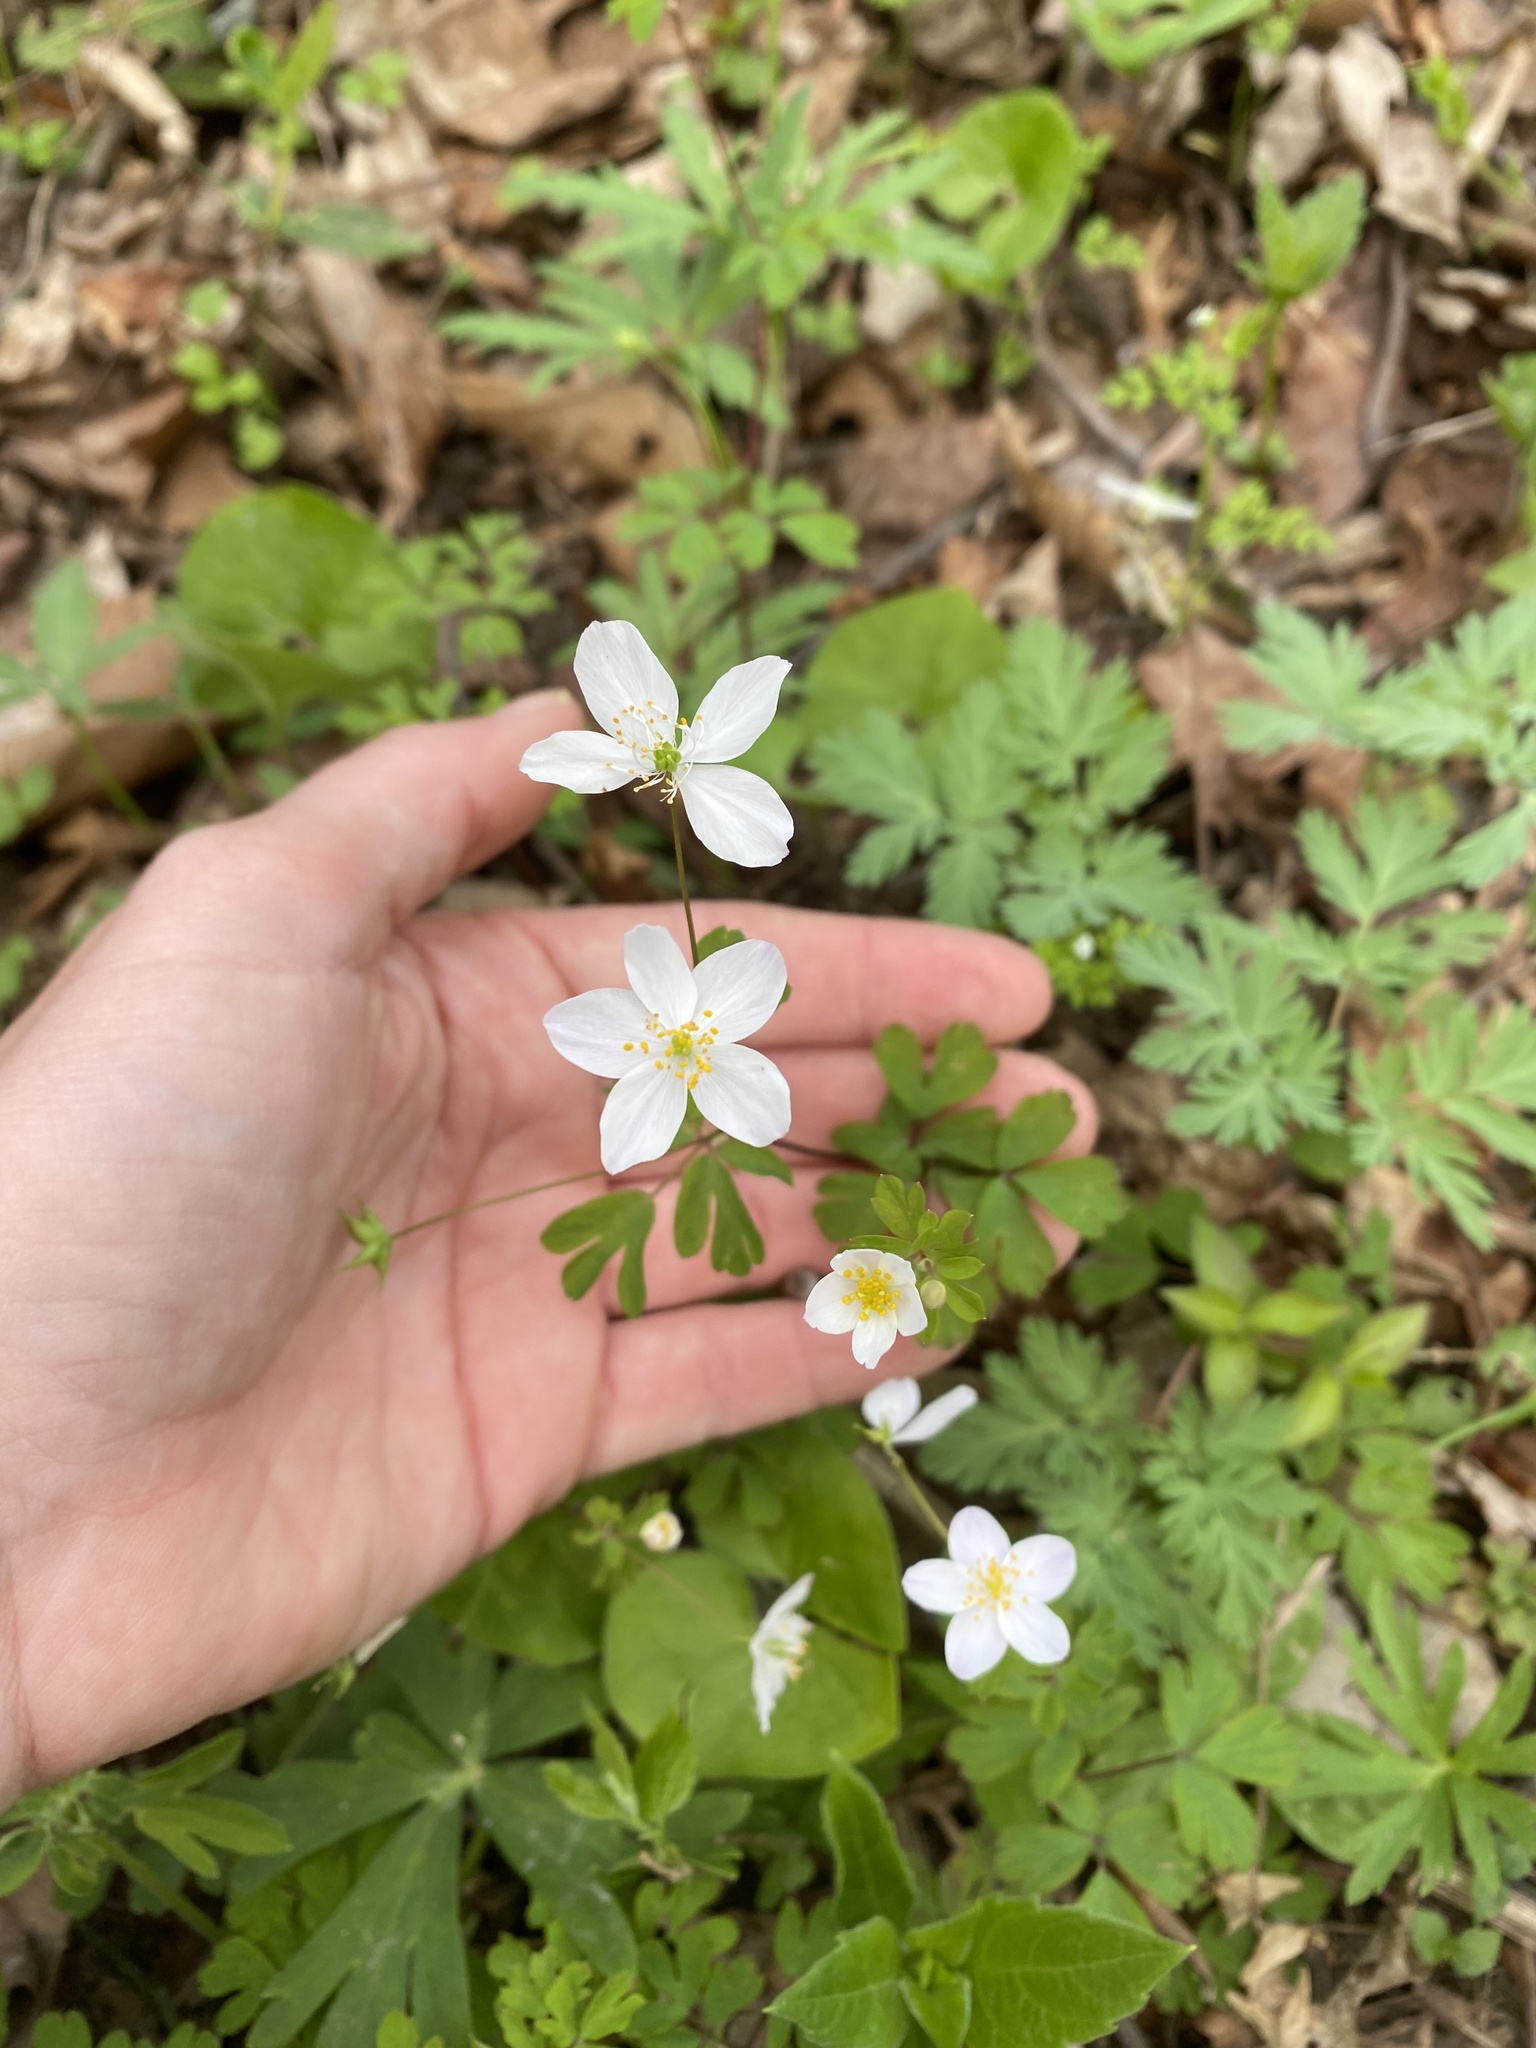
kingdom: Plantae
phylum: Tracheophyta
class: Magnoliopsida
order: Ranunculales
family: Ranunculaceae
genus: Enemion
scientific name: Enemion biternatum
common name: Eastern false rue-anemone
